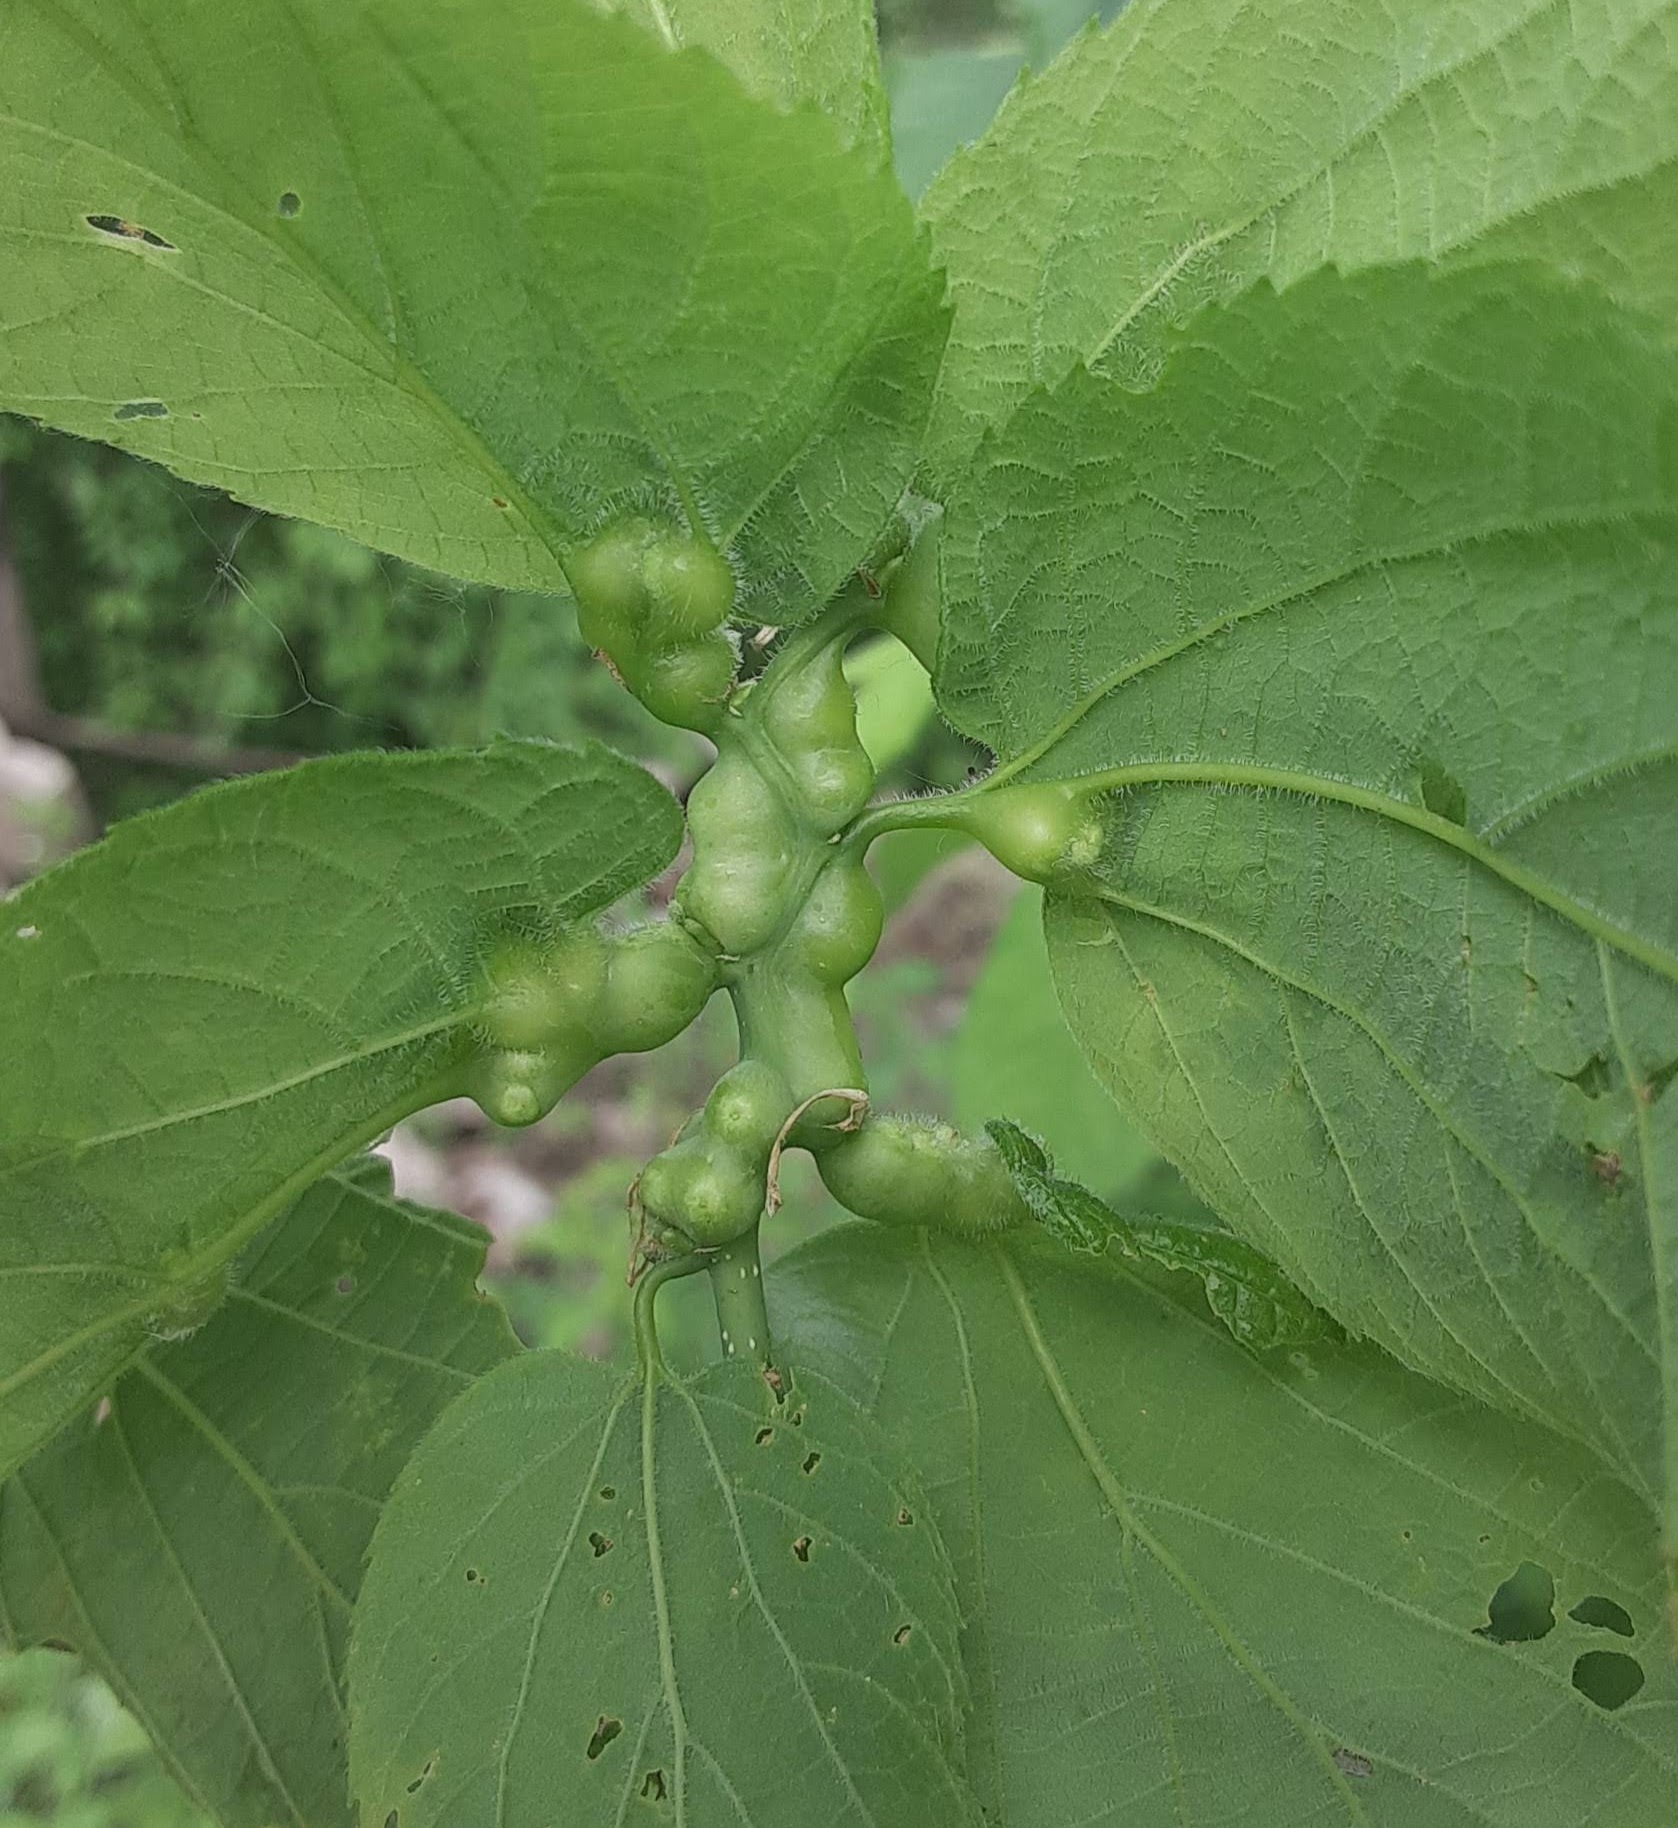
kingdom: Animalia
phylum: Arthropoda
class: Insecta
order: Diptera
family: Cecidomyiidae
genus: Celticecis
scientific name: Celticecis expulsa
